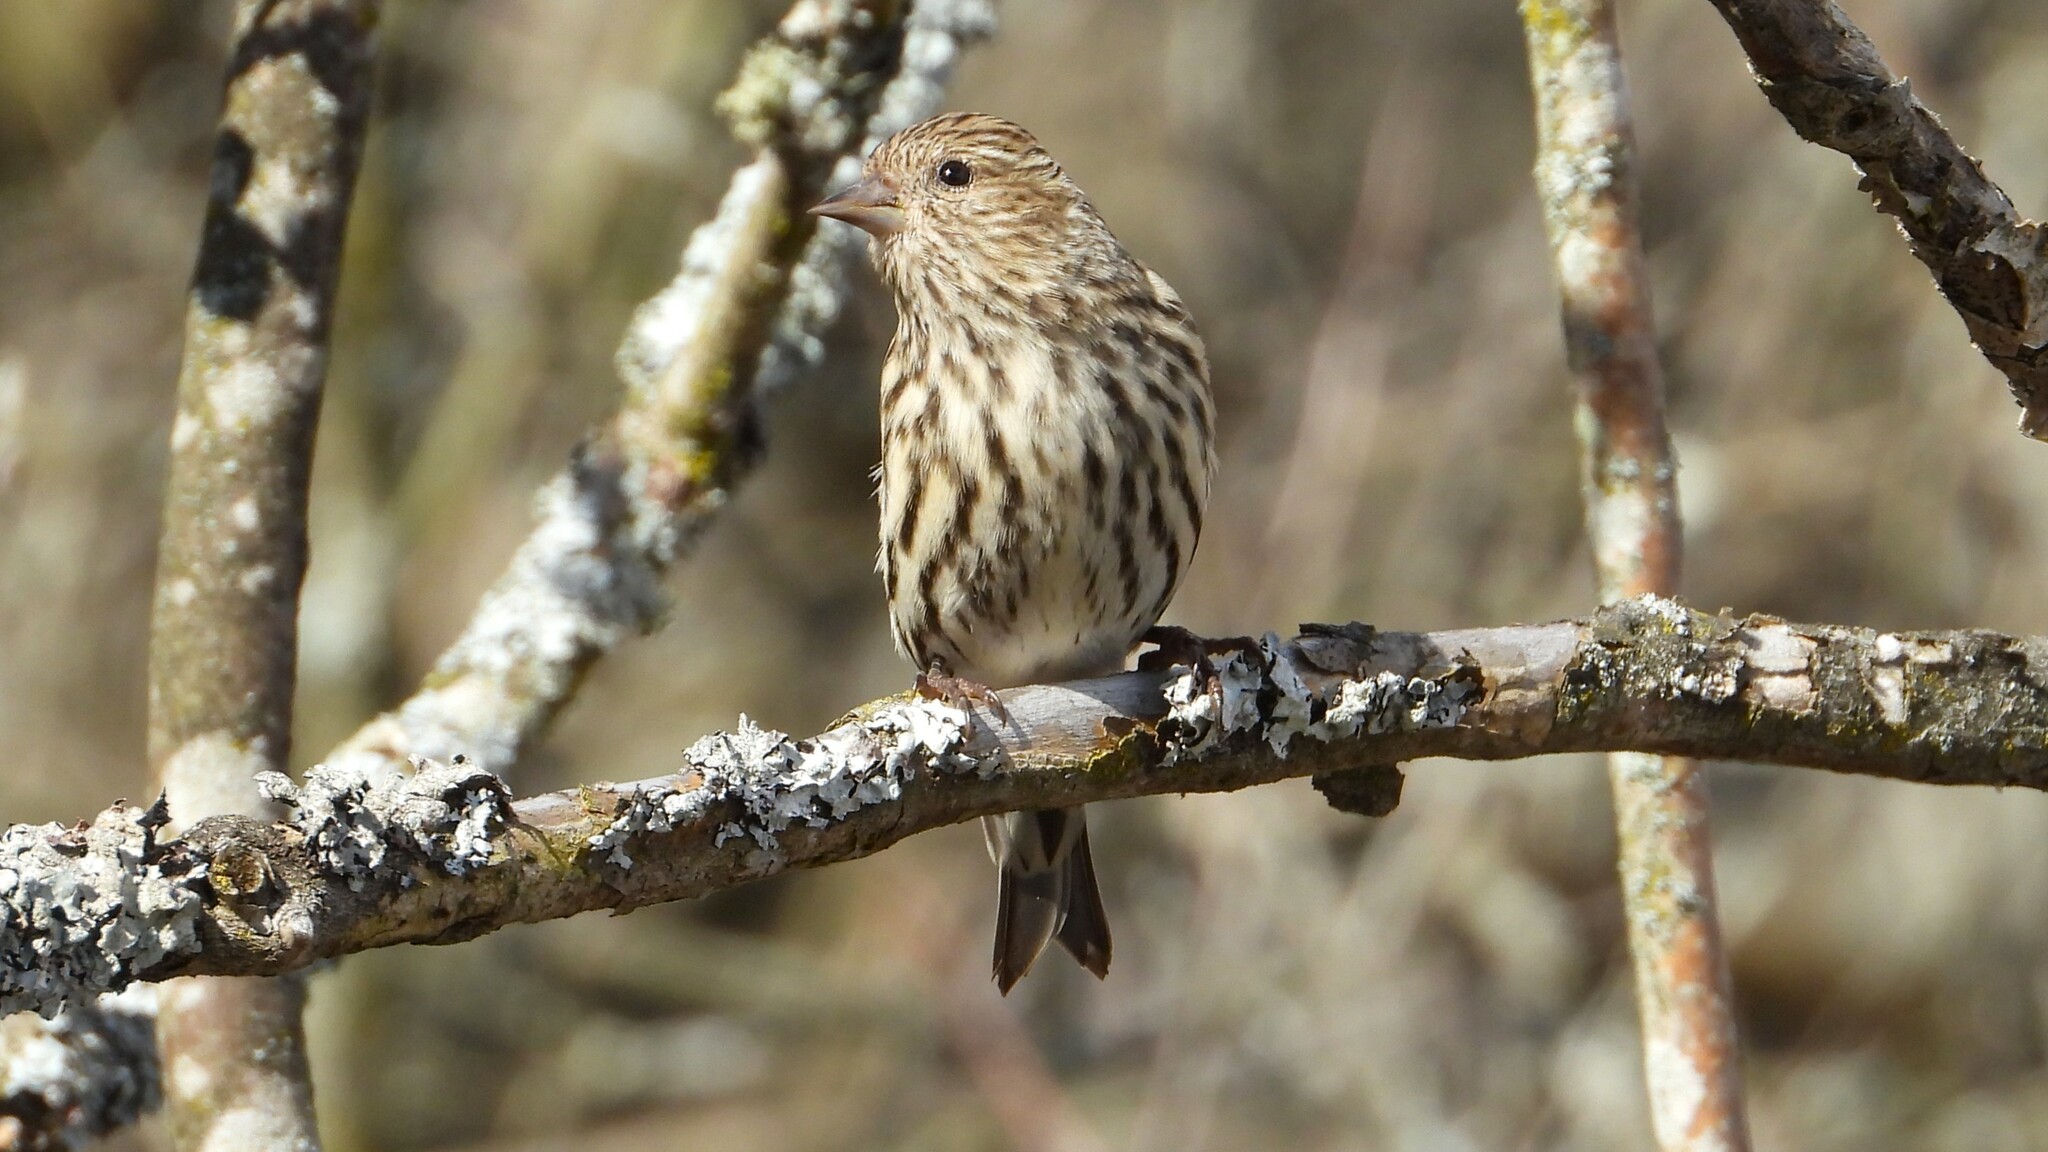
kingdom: Animalia
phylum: Chordata
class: Aves
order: Passeriformes
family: Fringillidae
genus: Spinus
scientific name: Spinus pinus
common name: Pine siskin
